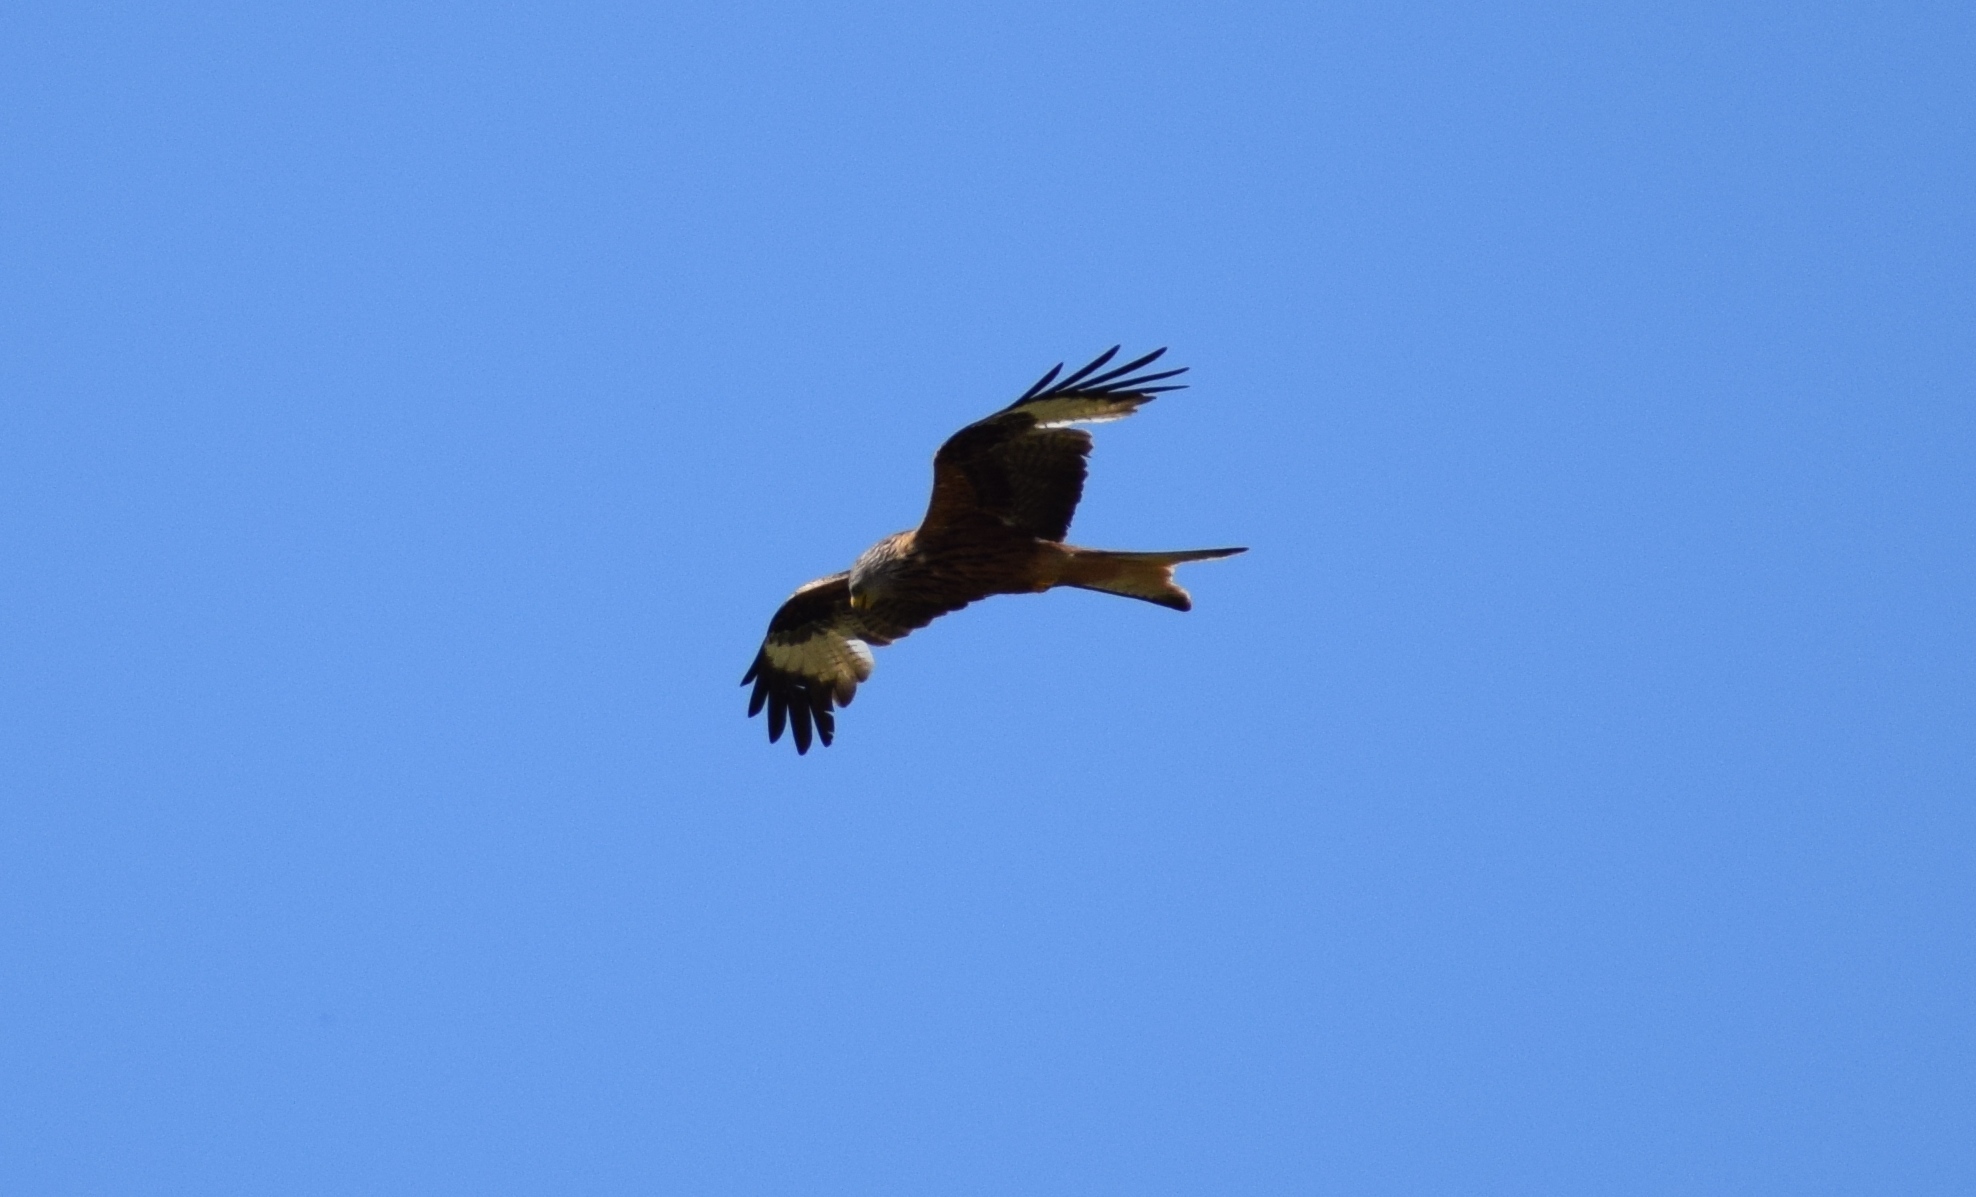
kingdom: Animalia
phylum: Chordata
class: Aves
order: Accipitriformes
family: Accipitridae
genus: Milvus
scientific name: Milvus milvus
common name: Red kite
